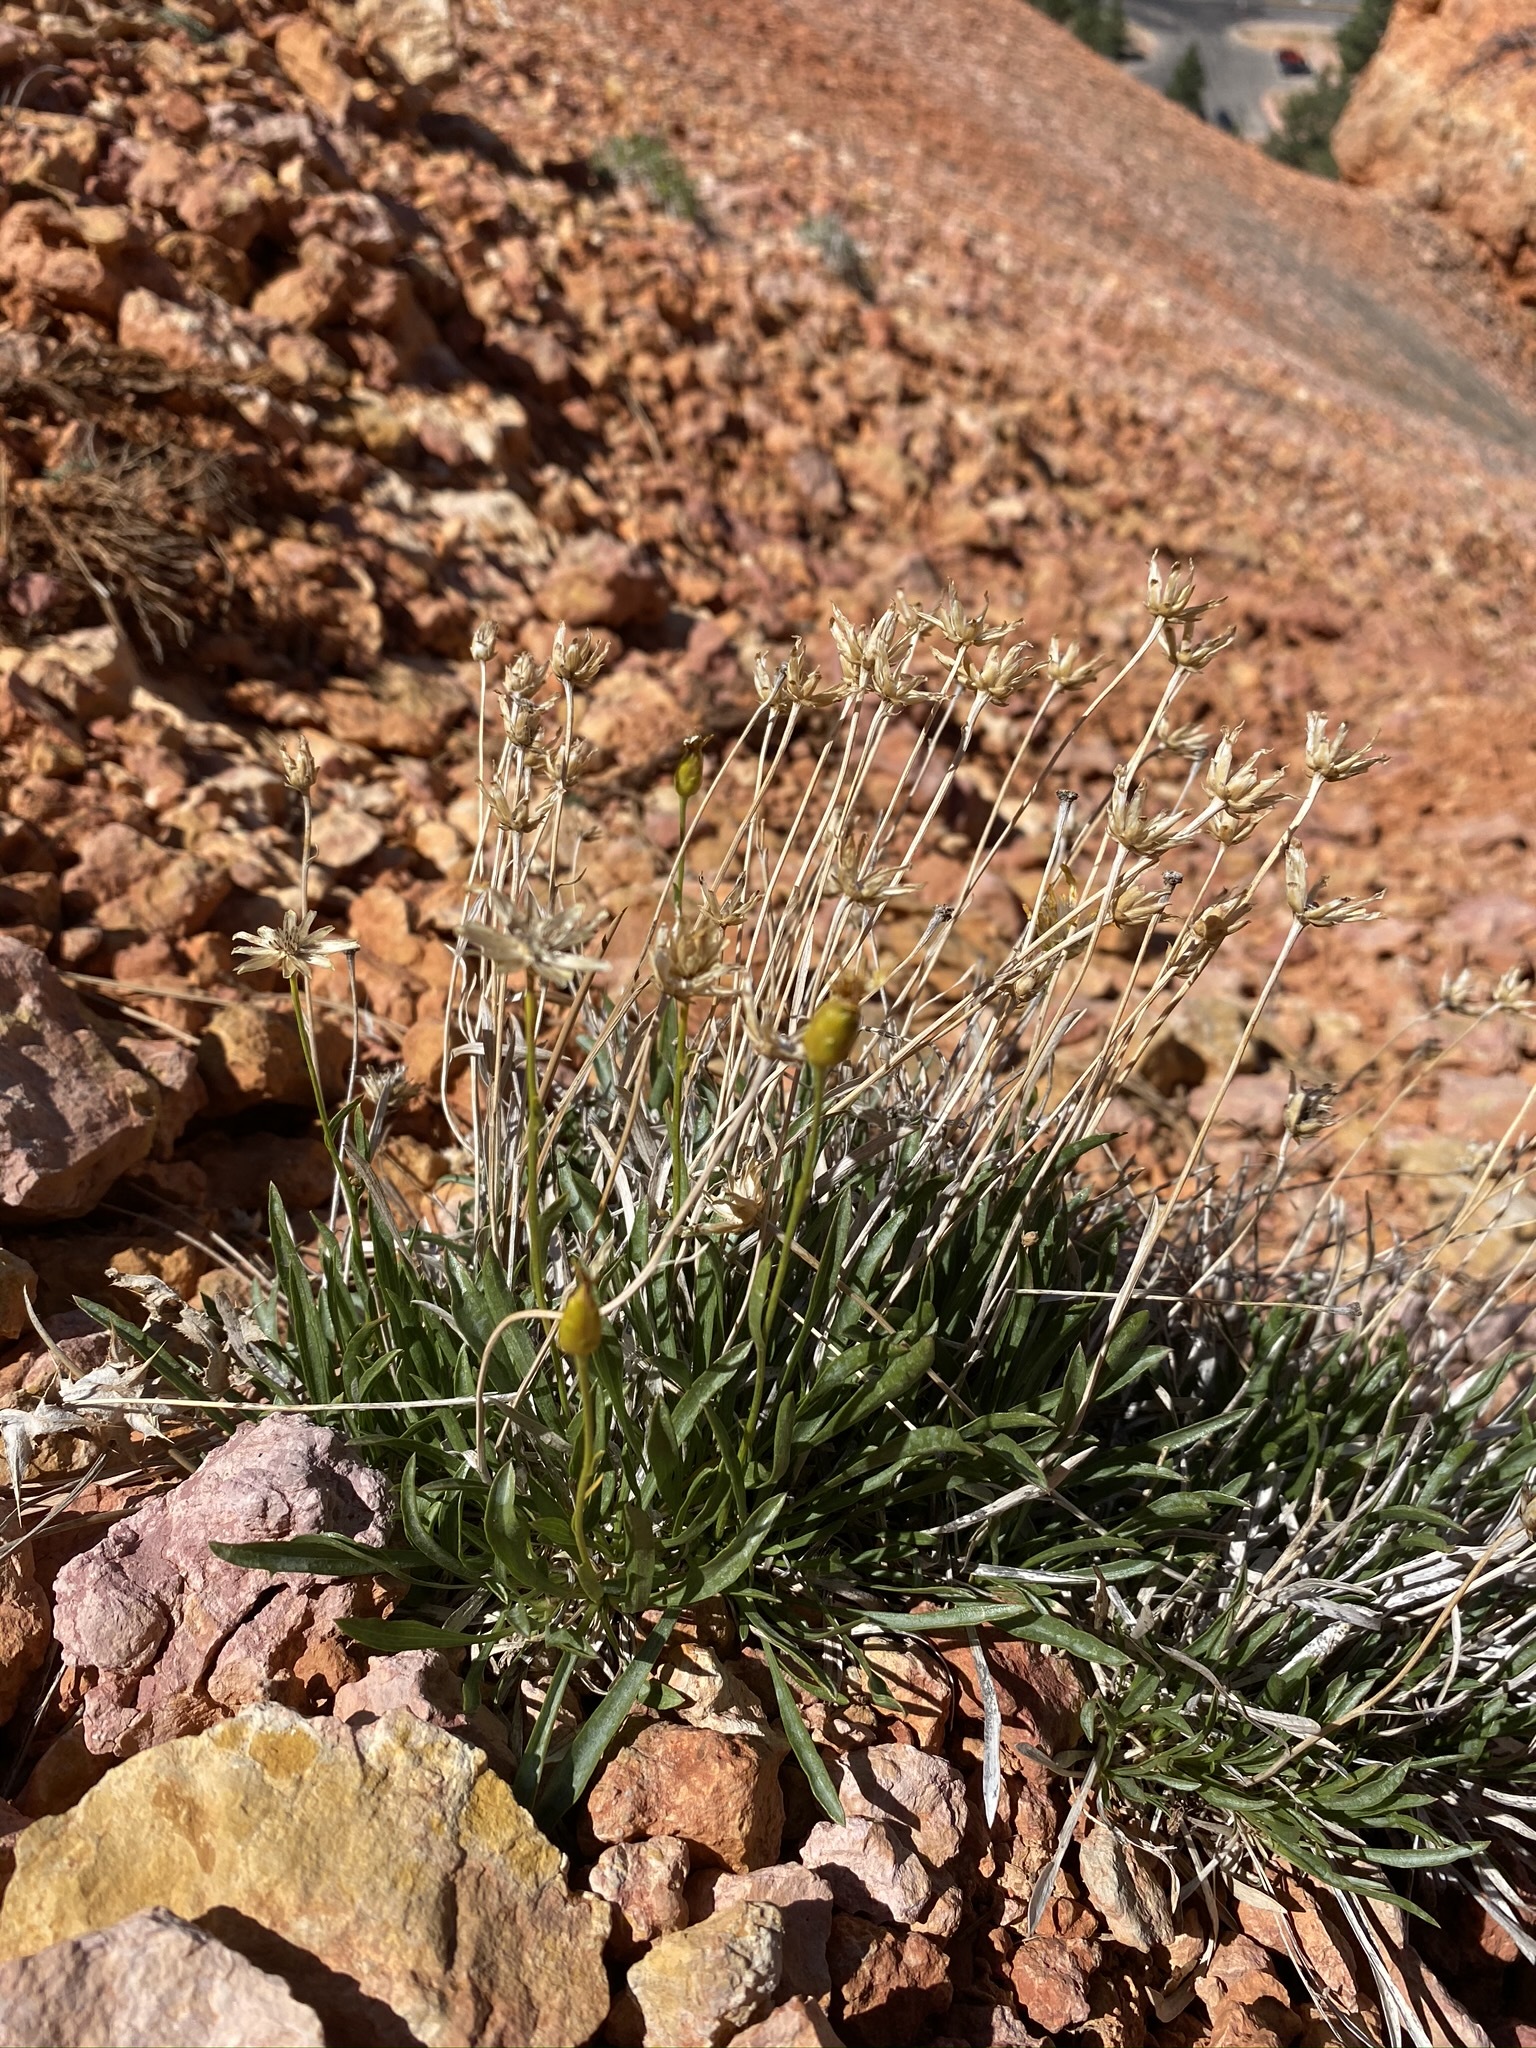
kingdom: Plantae
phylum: Tracheophyta
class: Magnoliopsida
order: Asterales
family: Asteraceae
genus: Stenotus
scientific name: Stenotus armerioides
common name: Thrifty goldenweed
